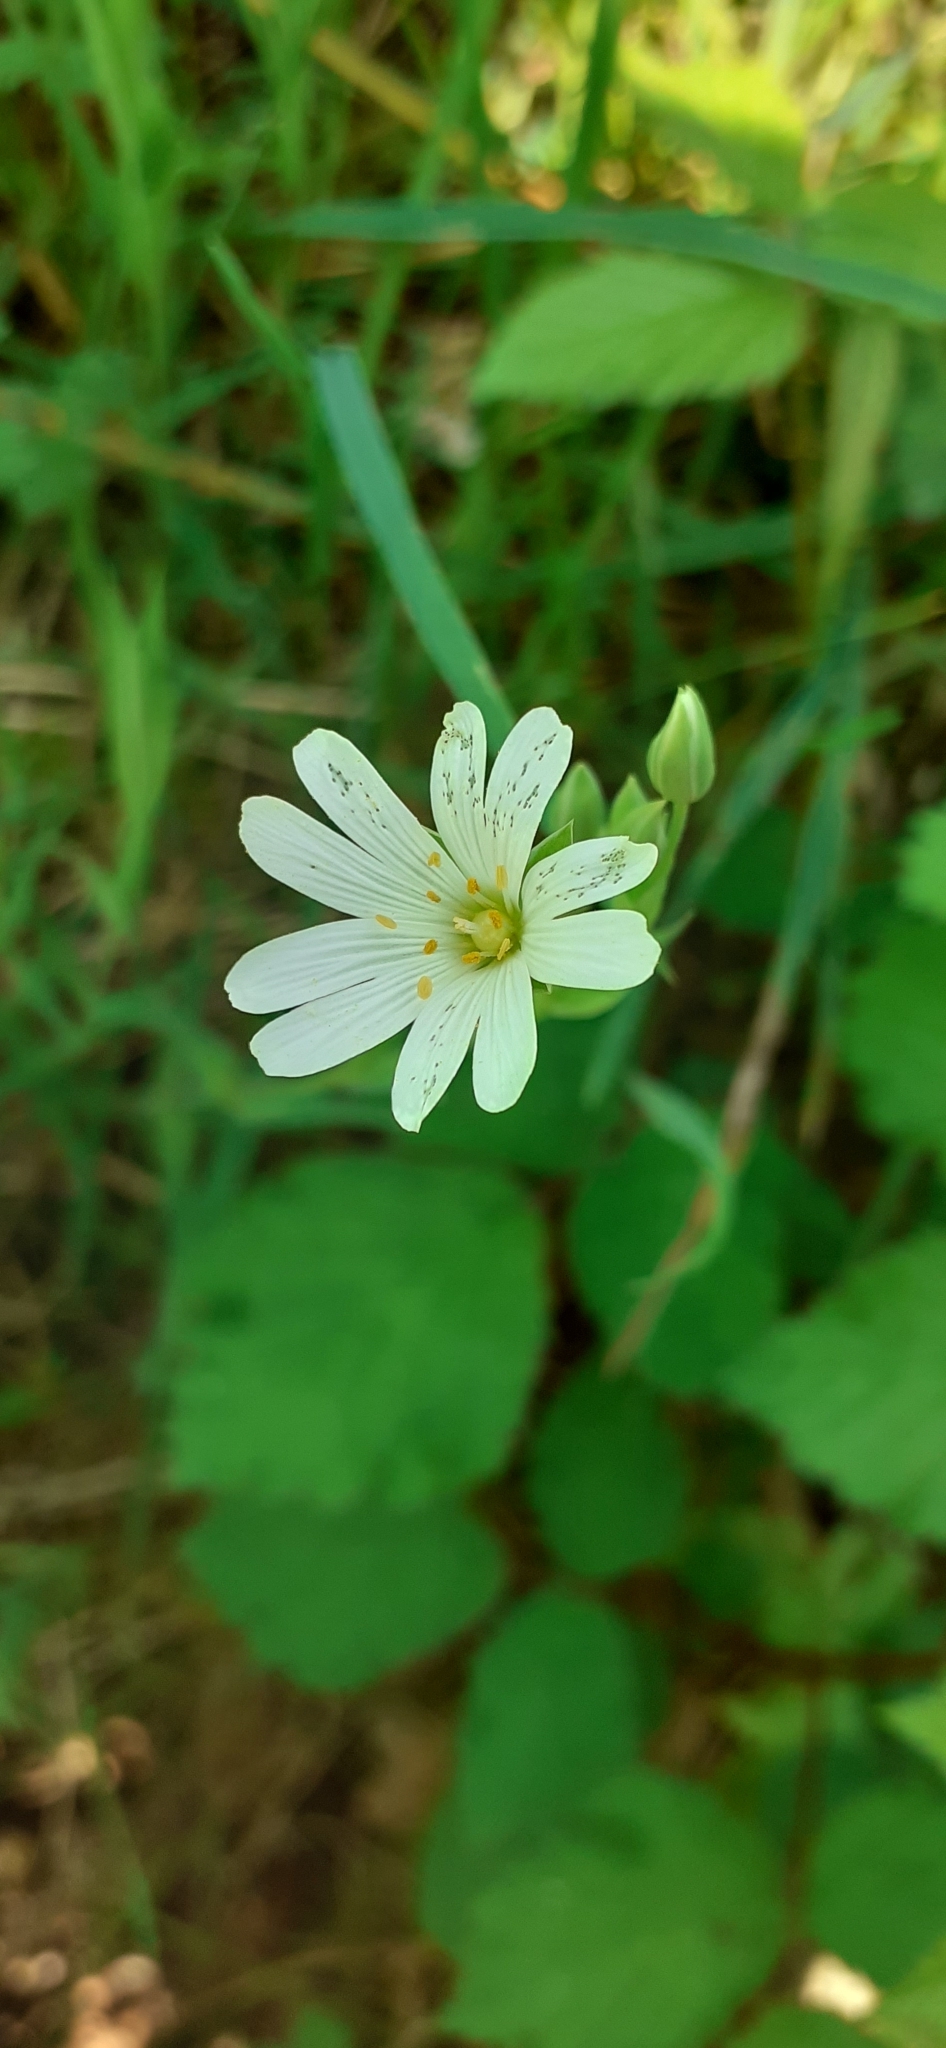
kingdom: Plantae
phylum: Tracheophyta
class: Magnoliopsida
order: Caryophyllales
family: Caryophyllaceae
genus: Rabelera
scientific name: Rabelera holostea
